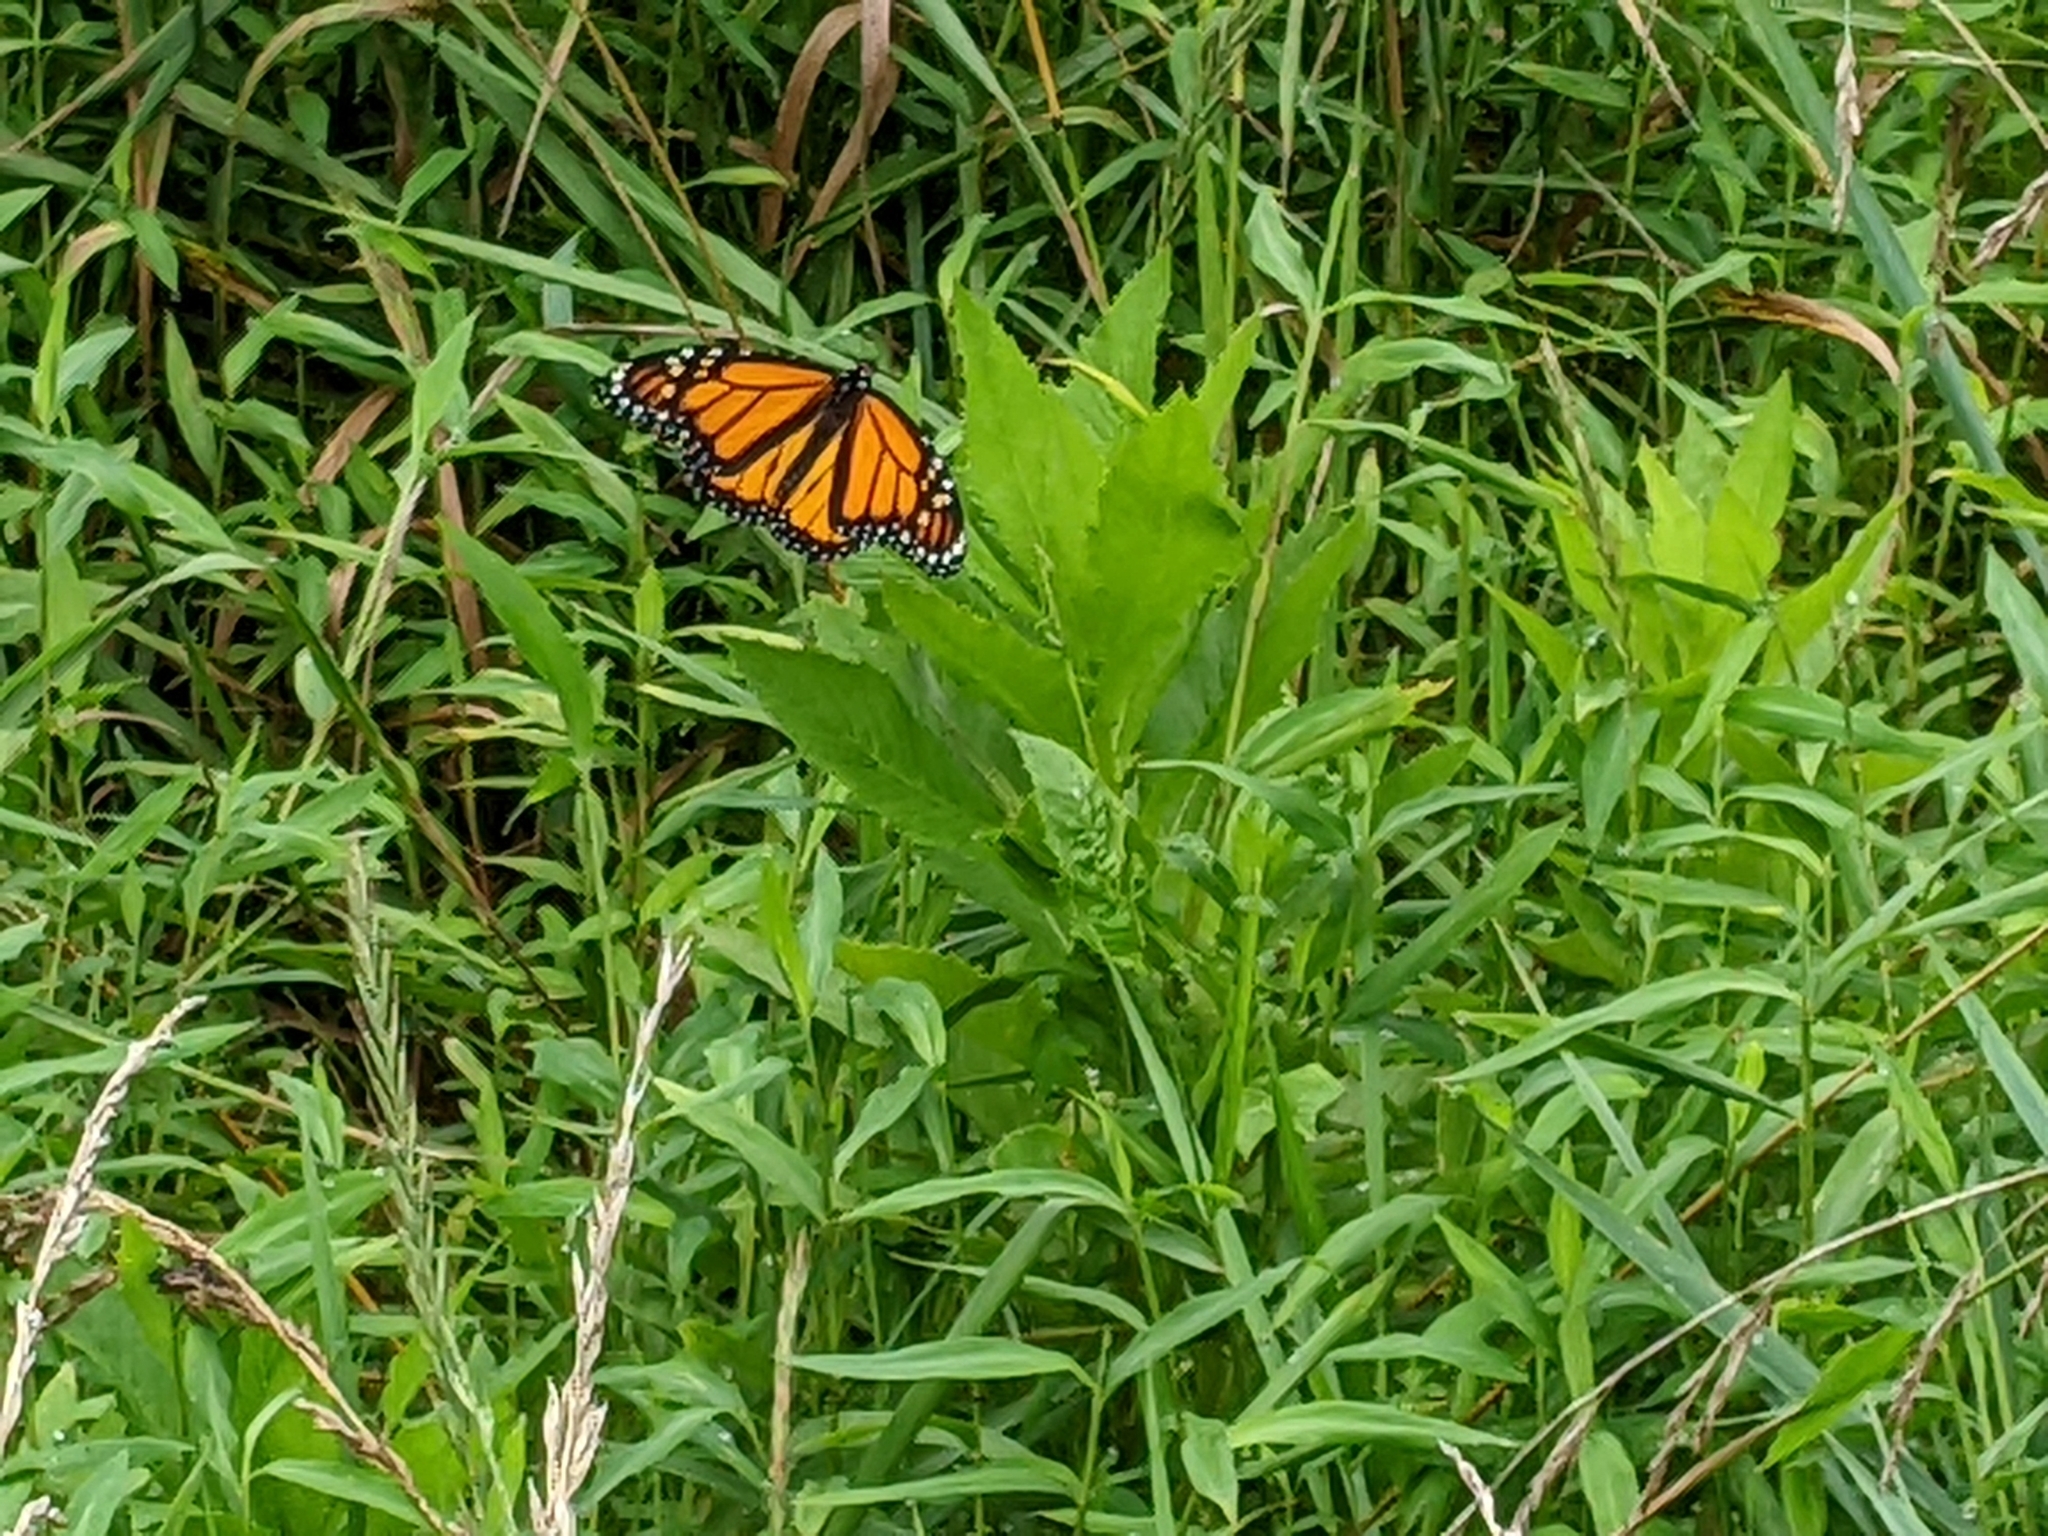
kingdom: Animalia
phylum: Arthropoda
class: Insecta
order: Lepidoptera
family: Nymphalidae
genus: Danaus
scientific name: Danaus plexippus
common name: Monarch
